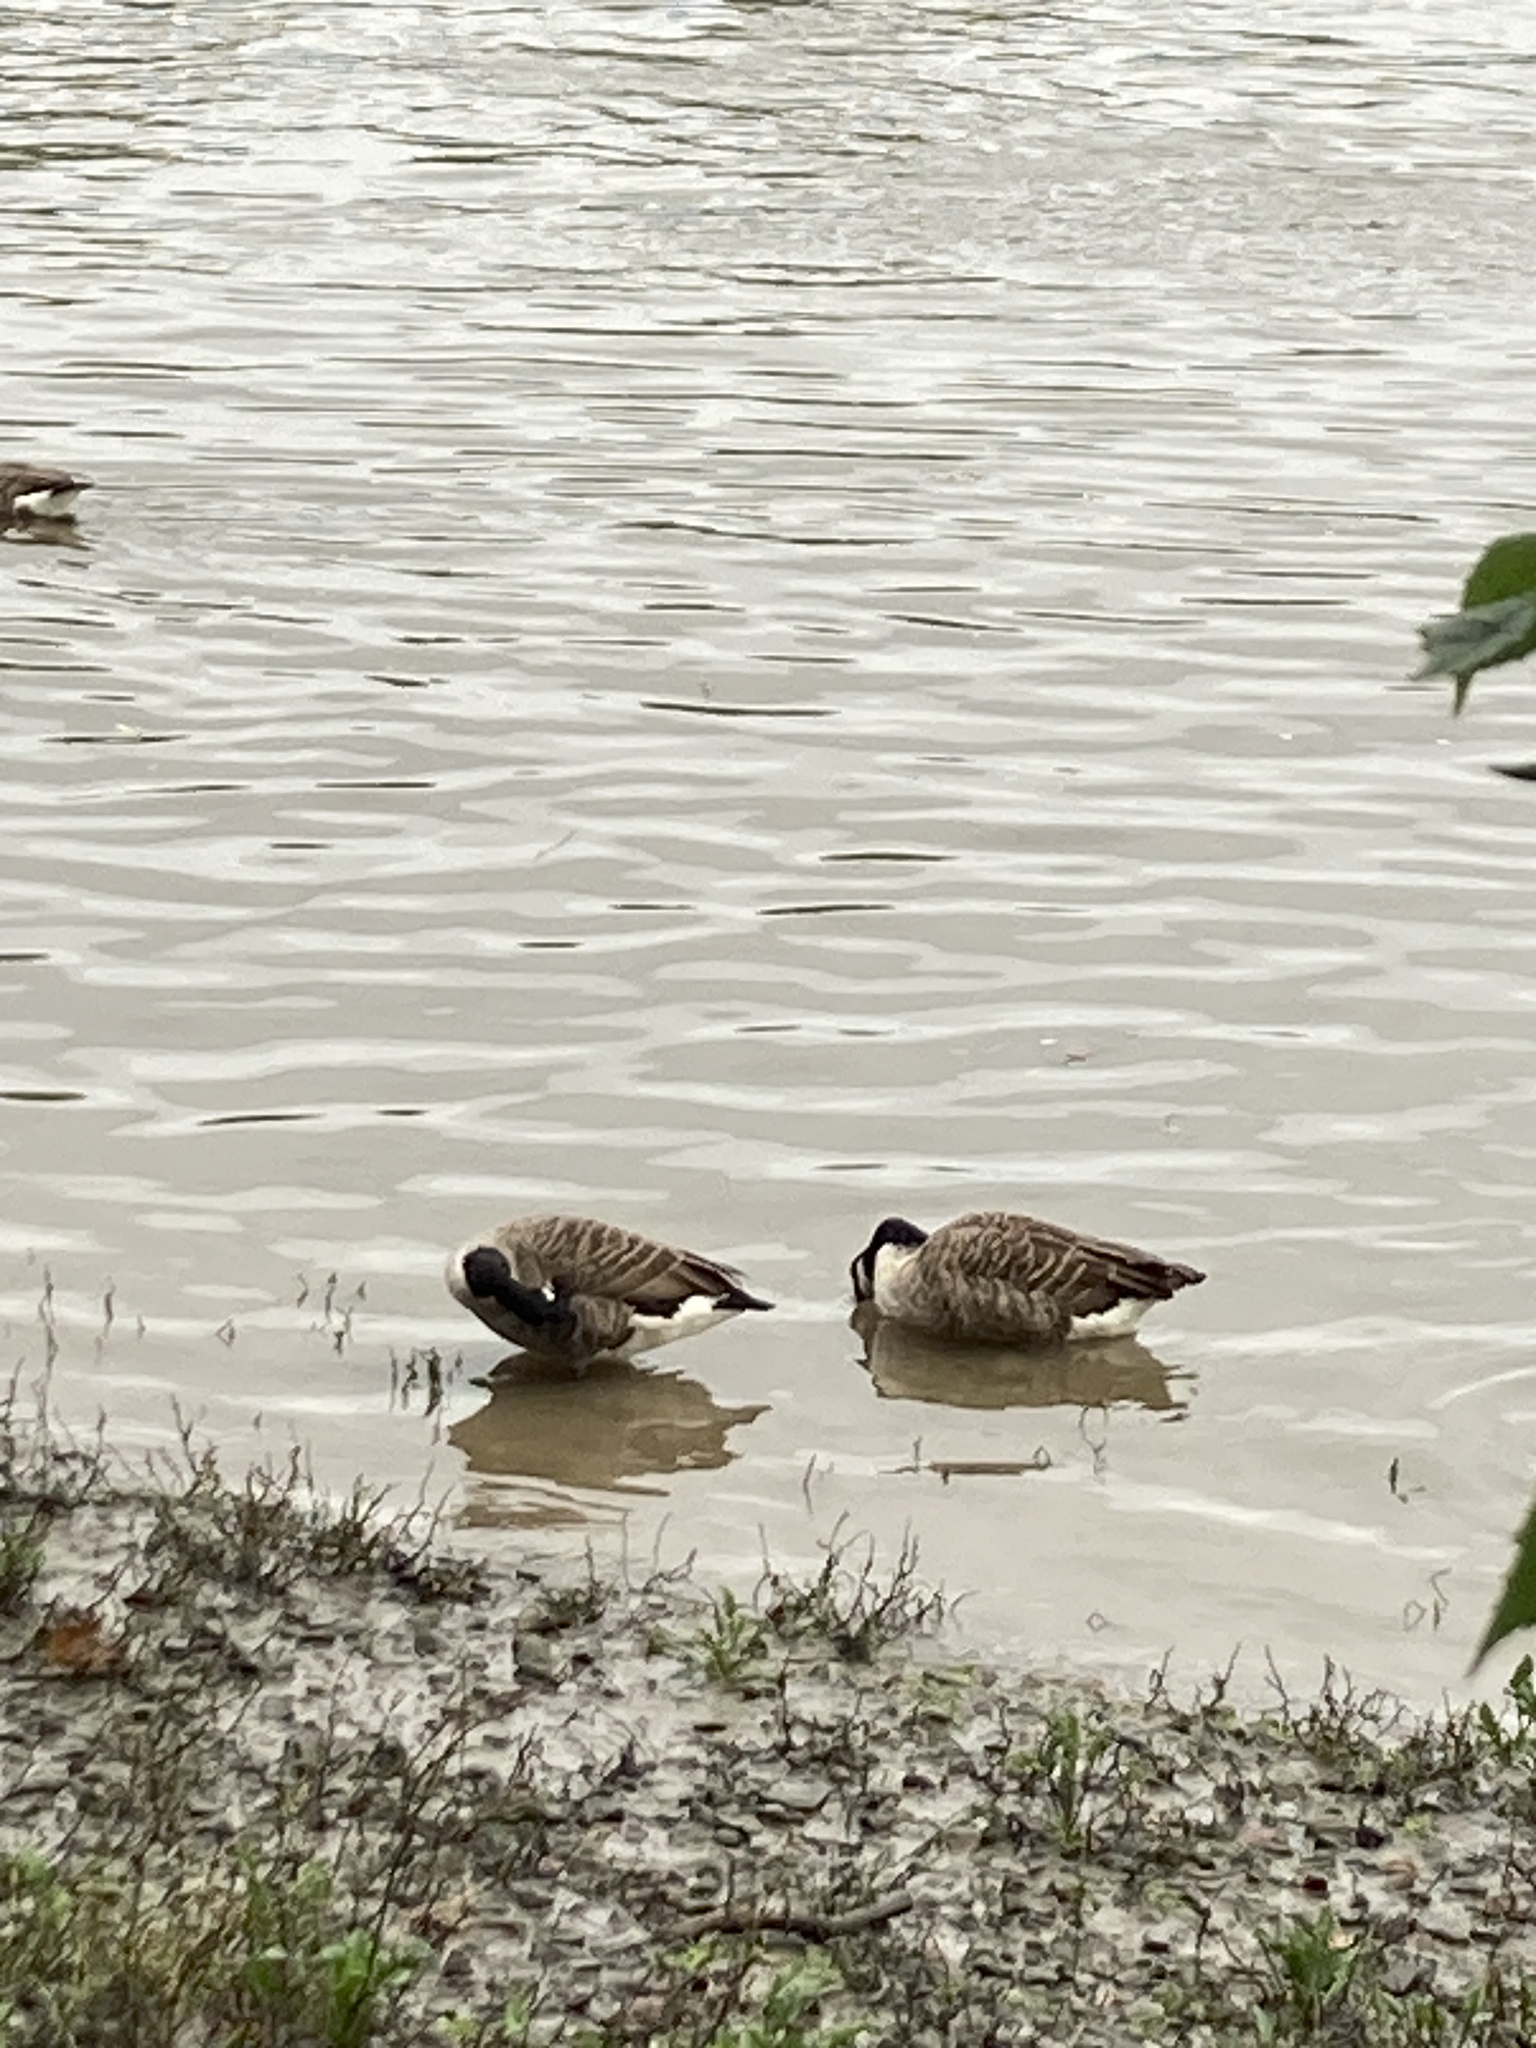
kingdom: Animalia
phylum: Chordata
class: Aves
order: Anseriformes
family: Anatidae
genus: Branta
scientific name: Branta canadensis
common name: Canada goose
